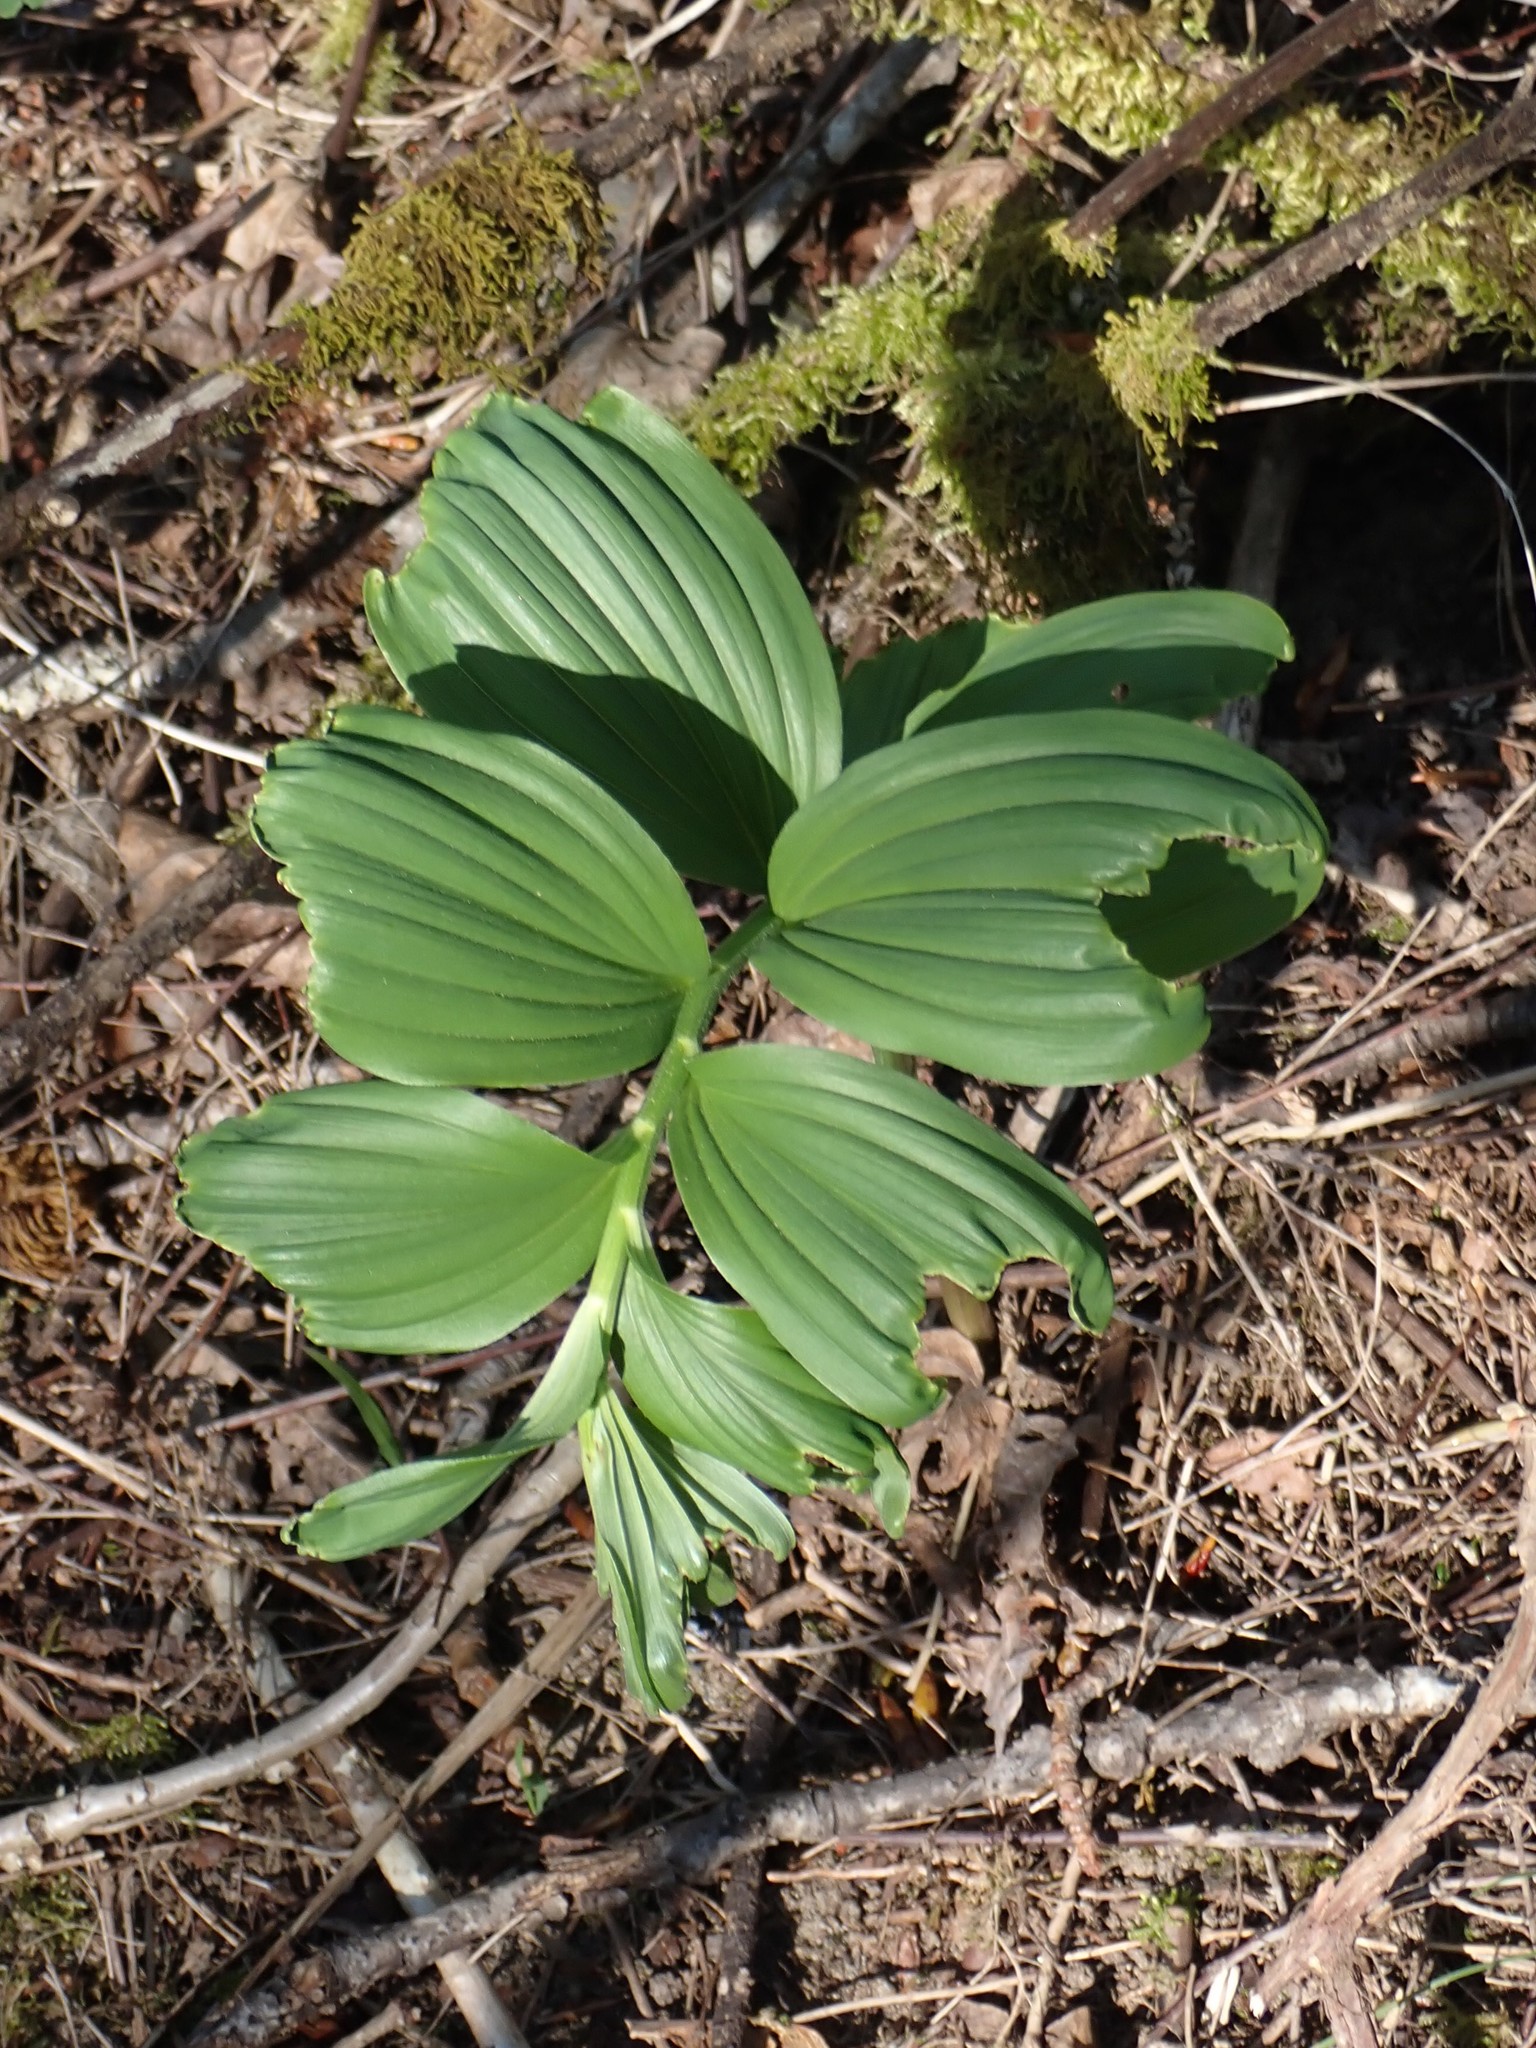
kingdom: Plantae
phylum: Tracheophyta
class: Liliopsida
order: Asparagales
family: Asparagaceae
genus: Maianthemum
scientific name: Maianthemum racemosum
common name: False spikenard
